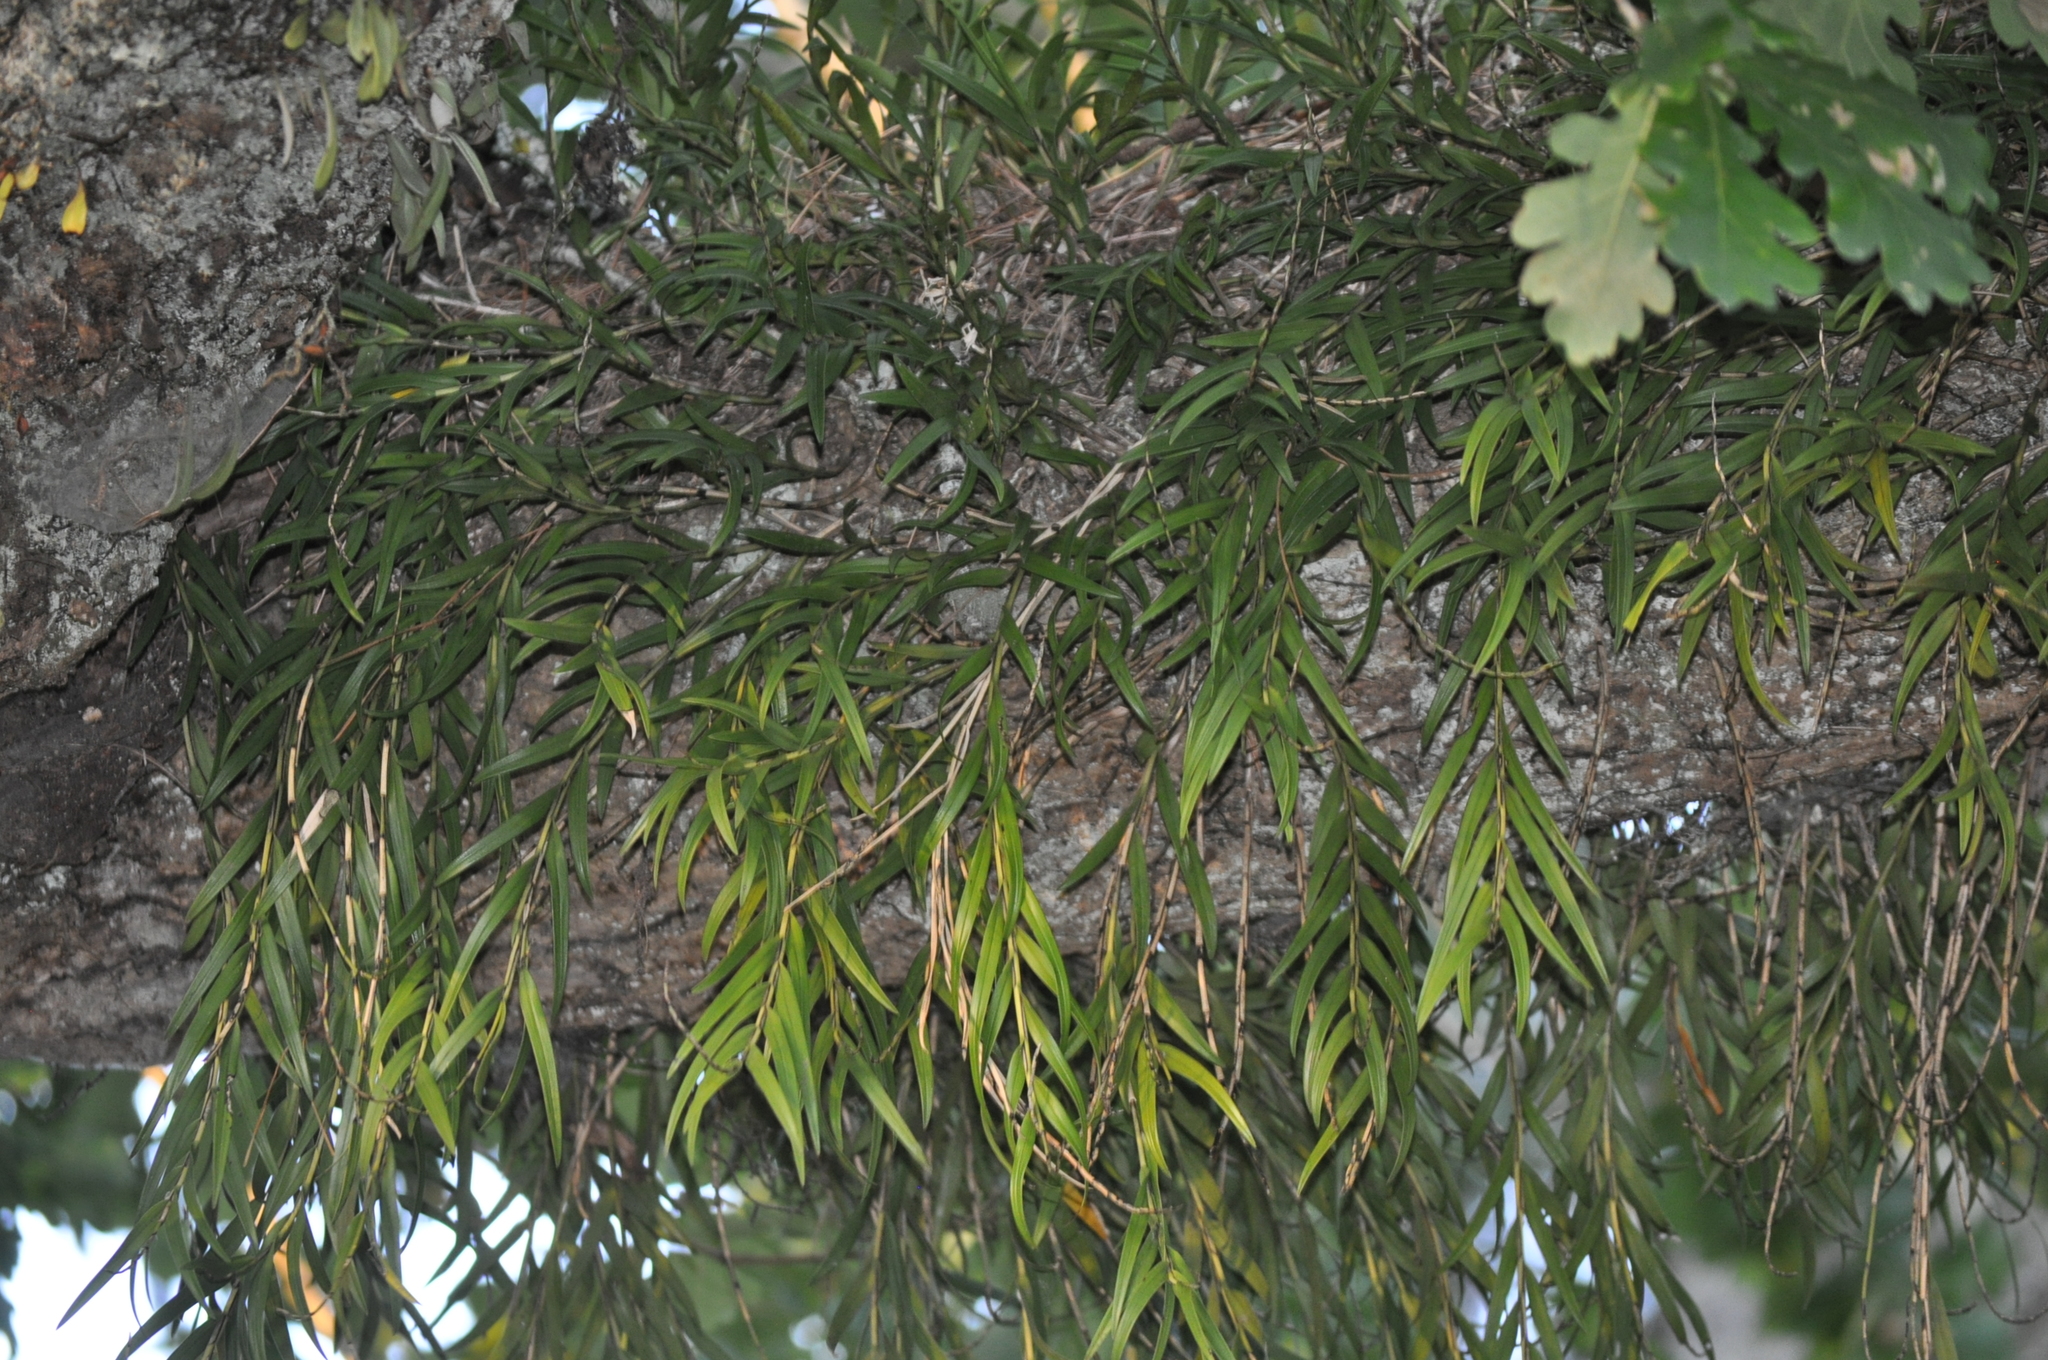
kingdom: Plantae
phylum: Tracheophyta
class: Liliopsida
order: Asparagales
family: Orchidaceae
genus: Earina
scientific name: Earina autumnalis
